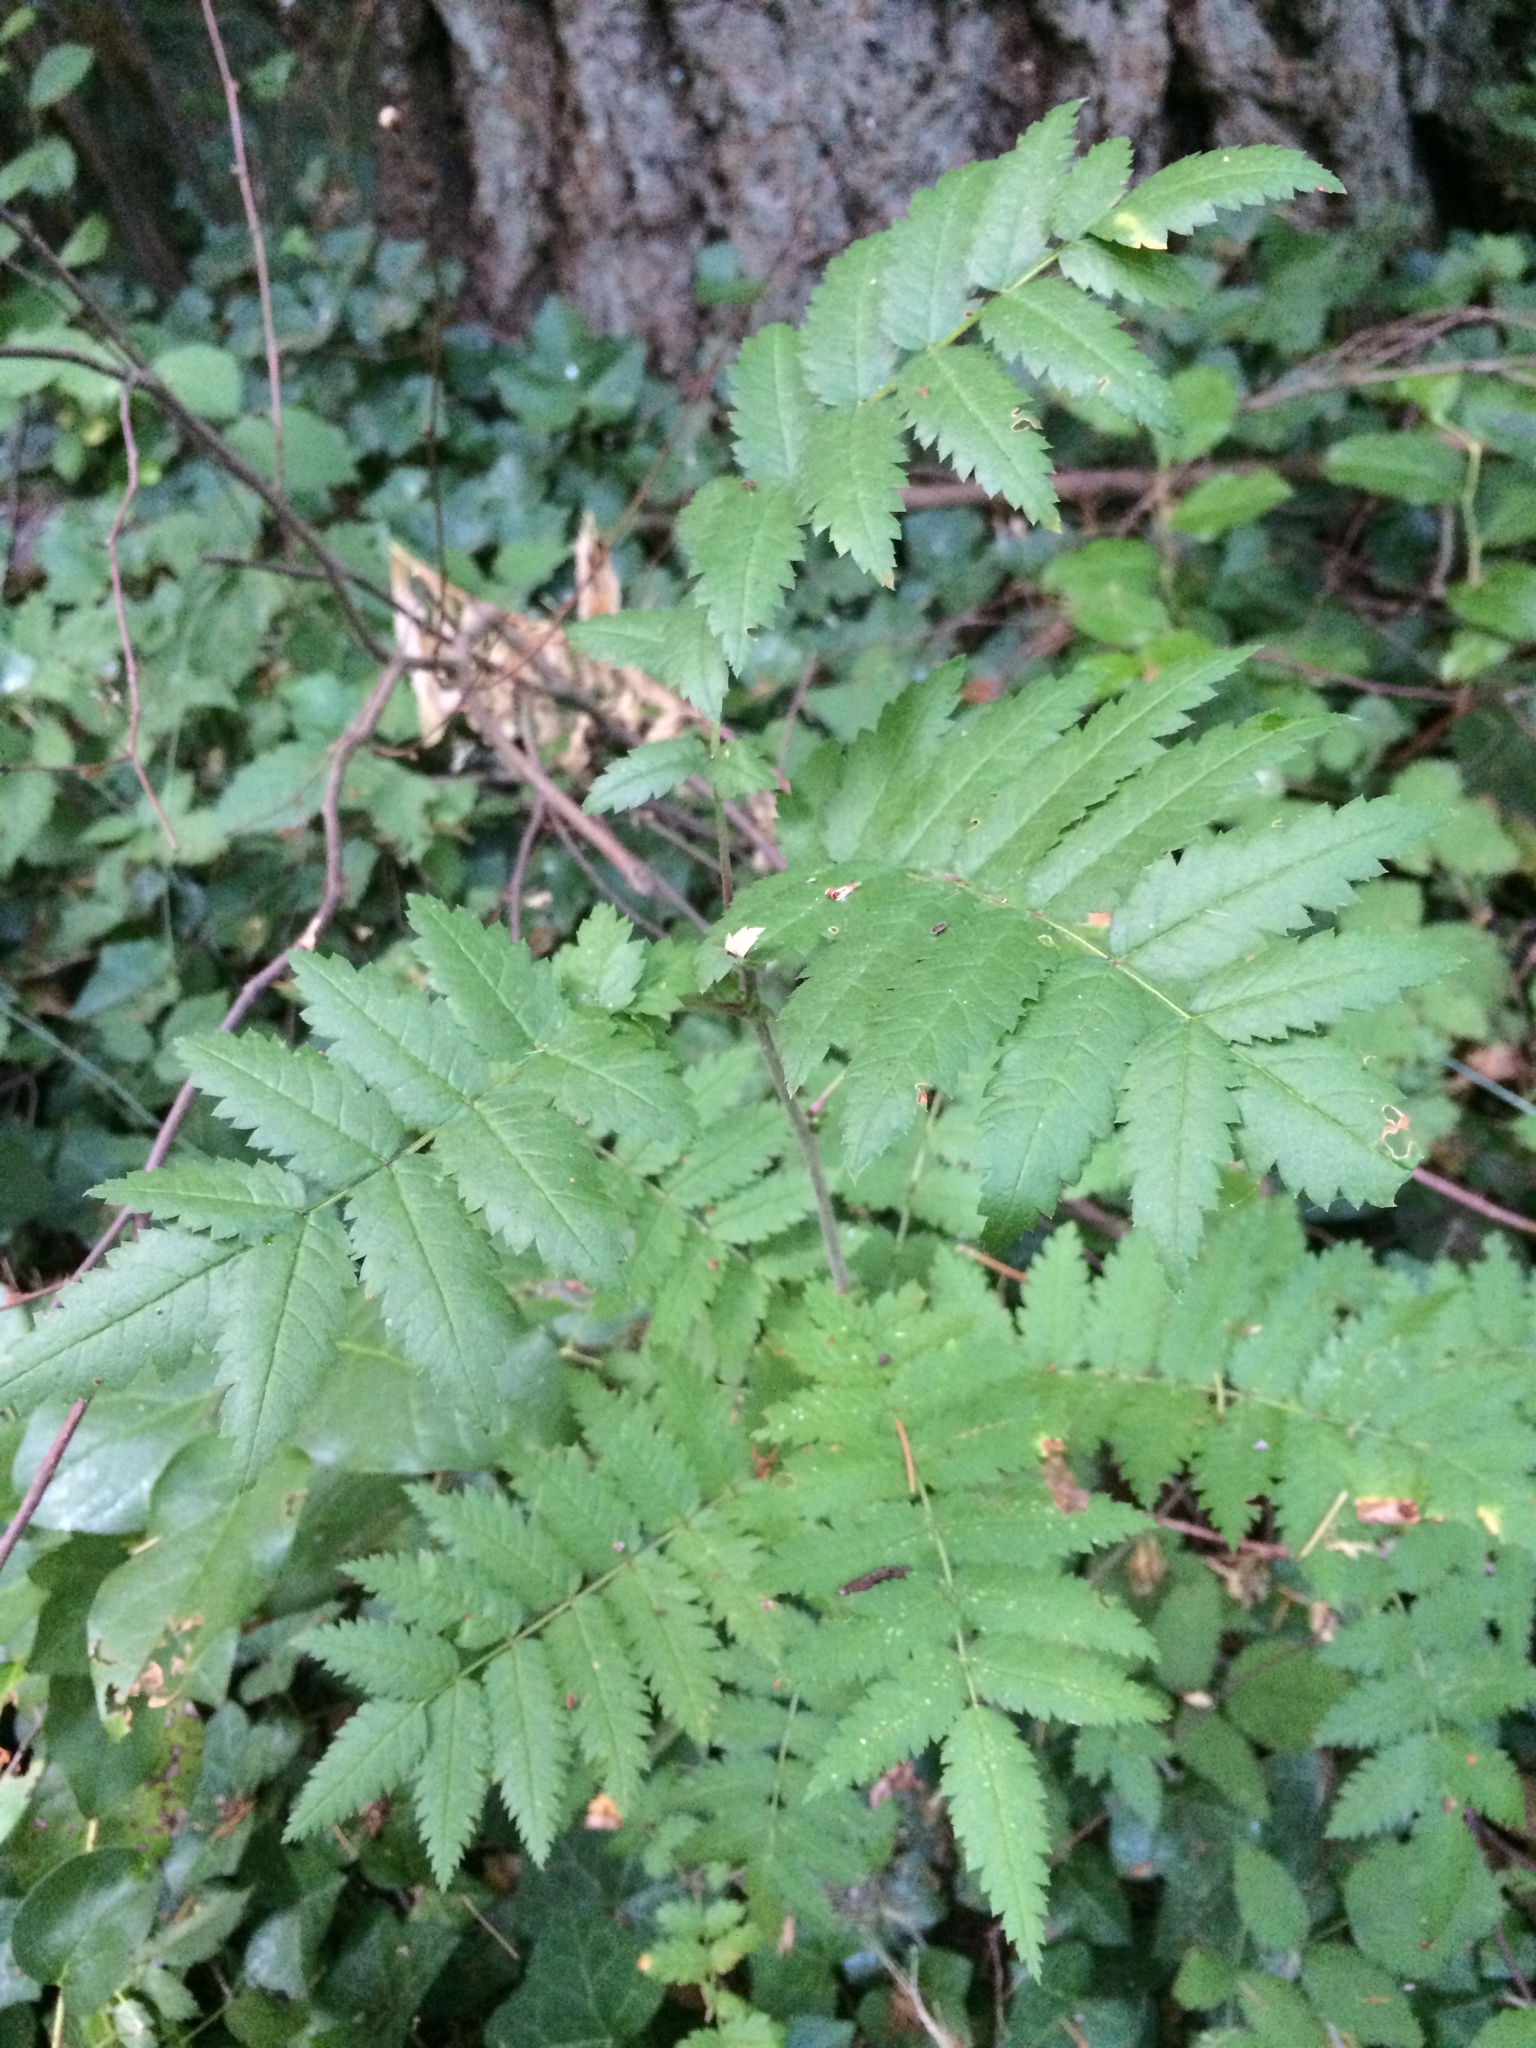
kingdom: Plantae
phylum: Tracheophyta
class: Magnoliopsida
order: Rosales
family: Rosaceae
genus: Sorbus
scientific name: Sorbus aucuparia
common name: Rowan
